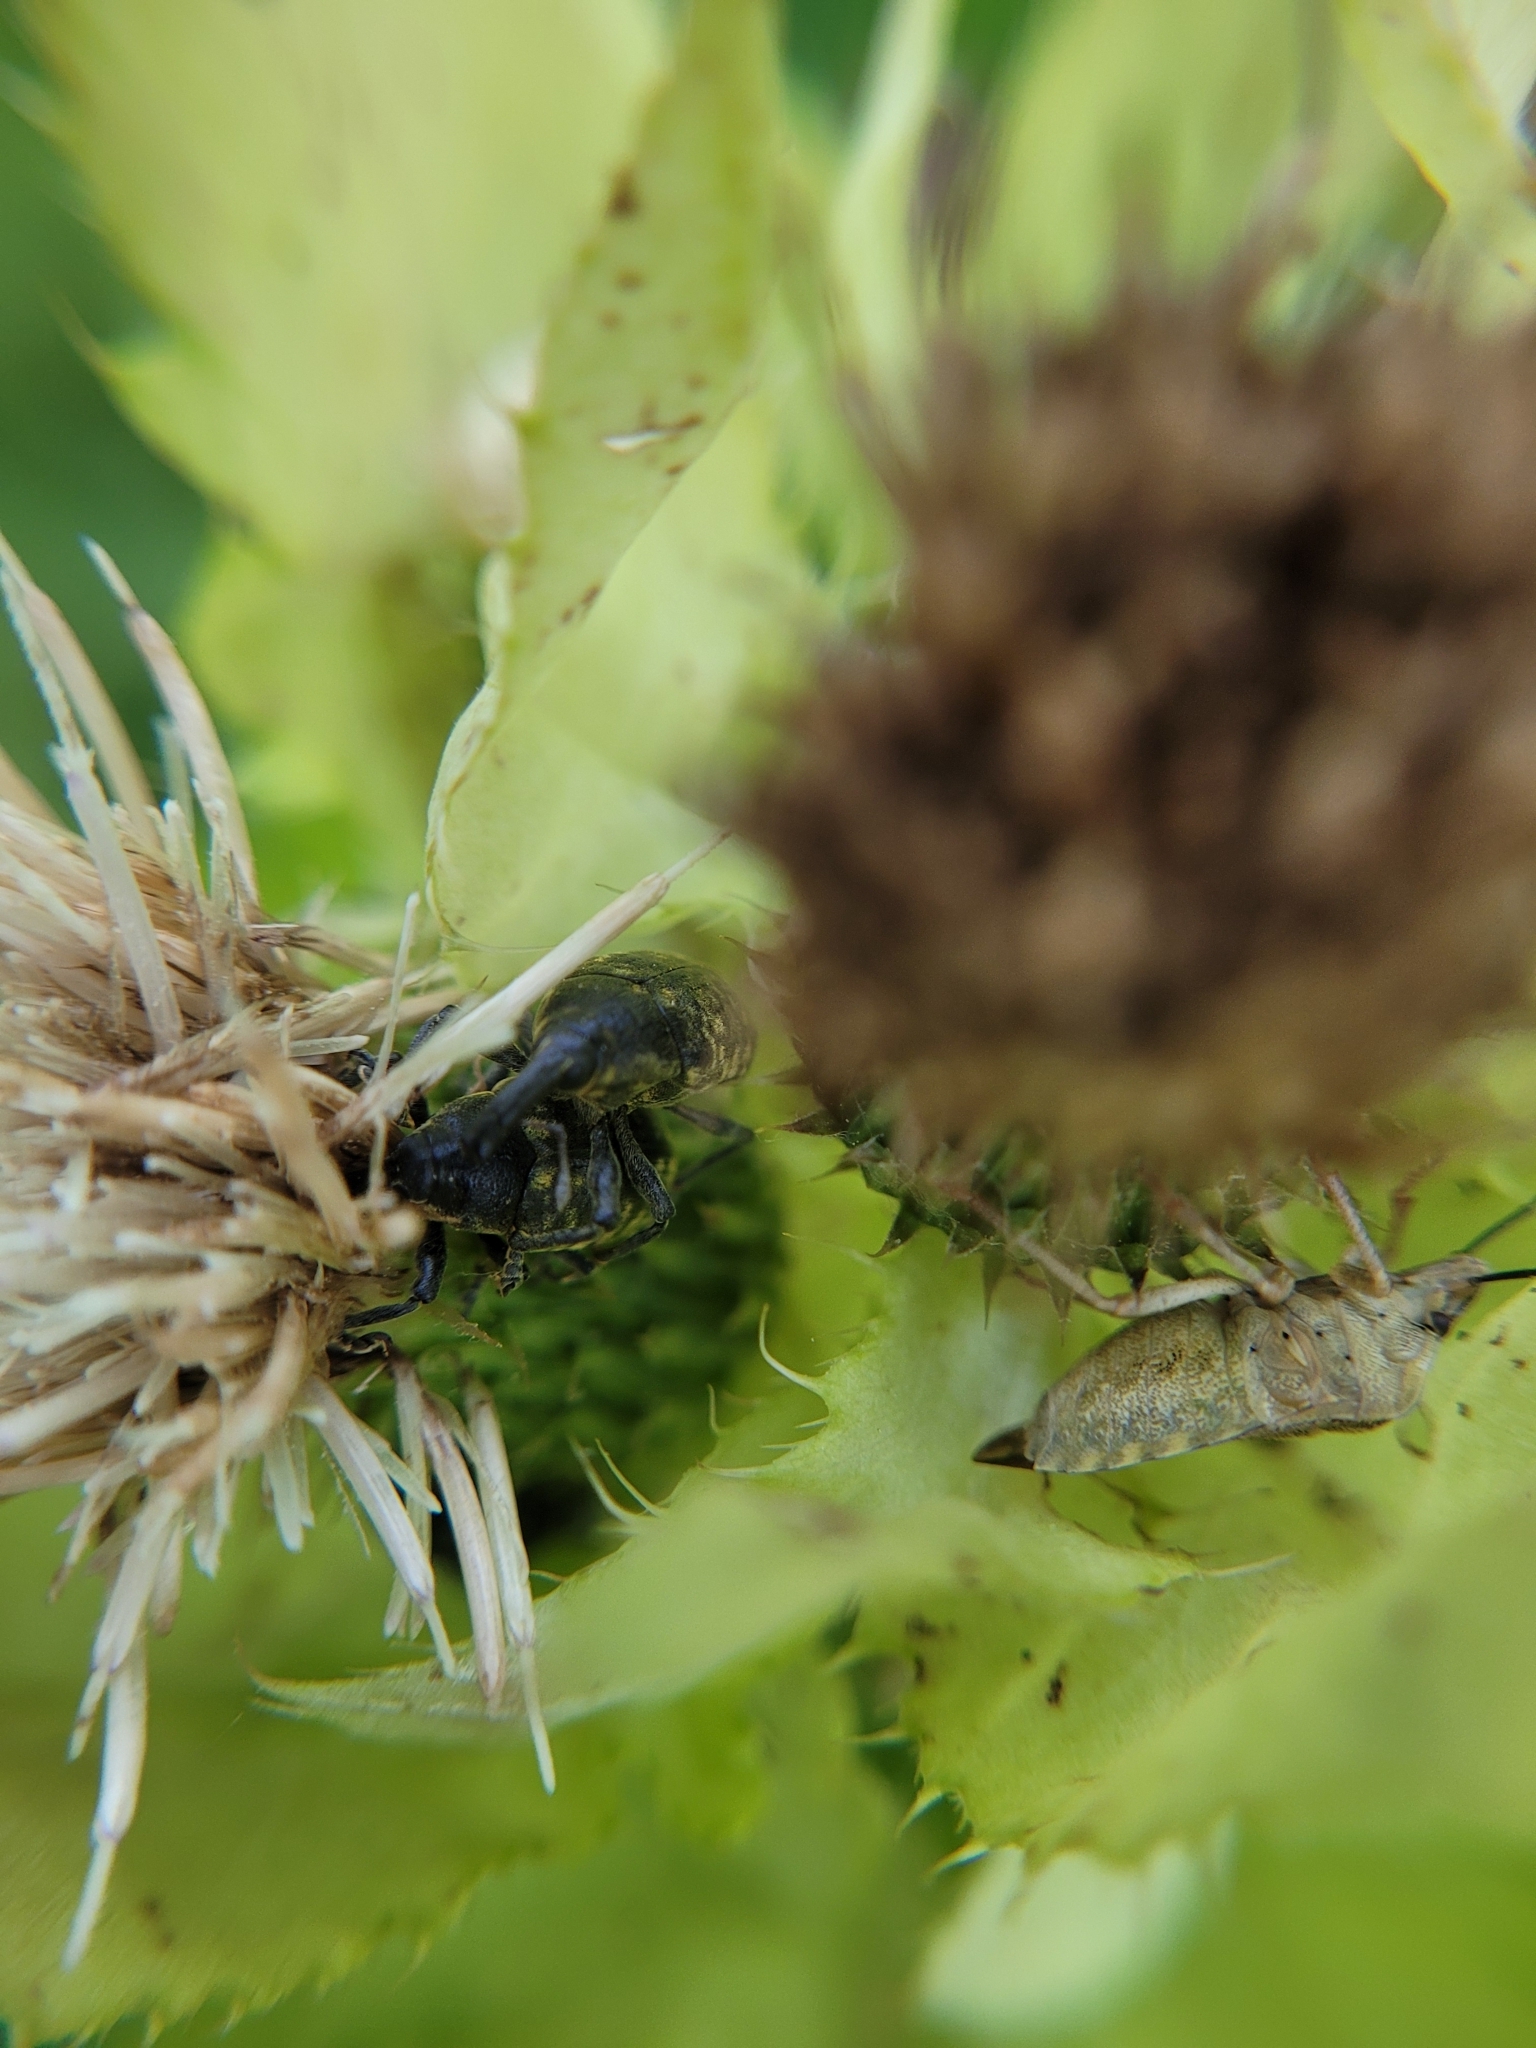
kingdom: Animalia
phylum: Arthropoda
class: Insecta
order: Coleoptera
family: Curculionidae
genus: Larinus
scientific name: Larinus sturnus
